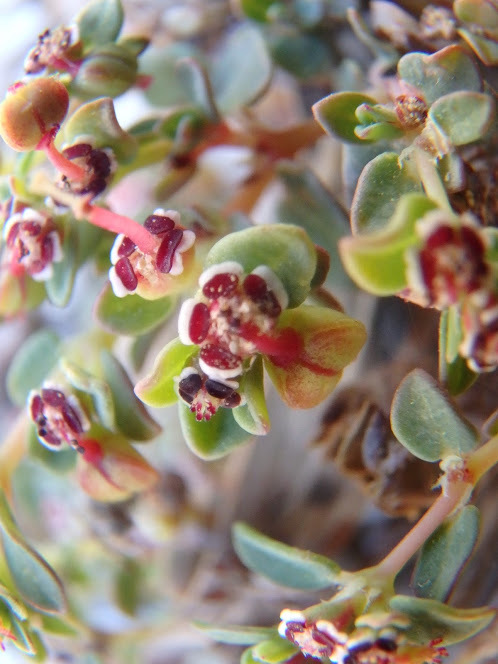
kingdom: Plantae
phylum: Tracheophyta
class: Magnoliopsida
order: Malpighiales
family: Euphorbiaceae
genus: Euphorbia
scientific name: Euphorbia polycarpa
